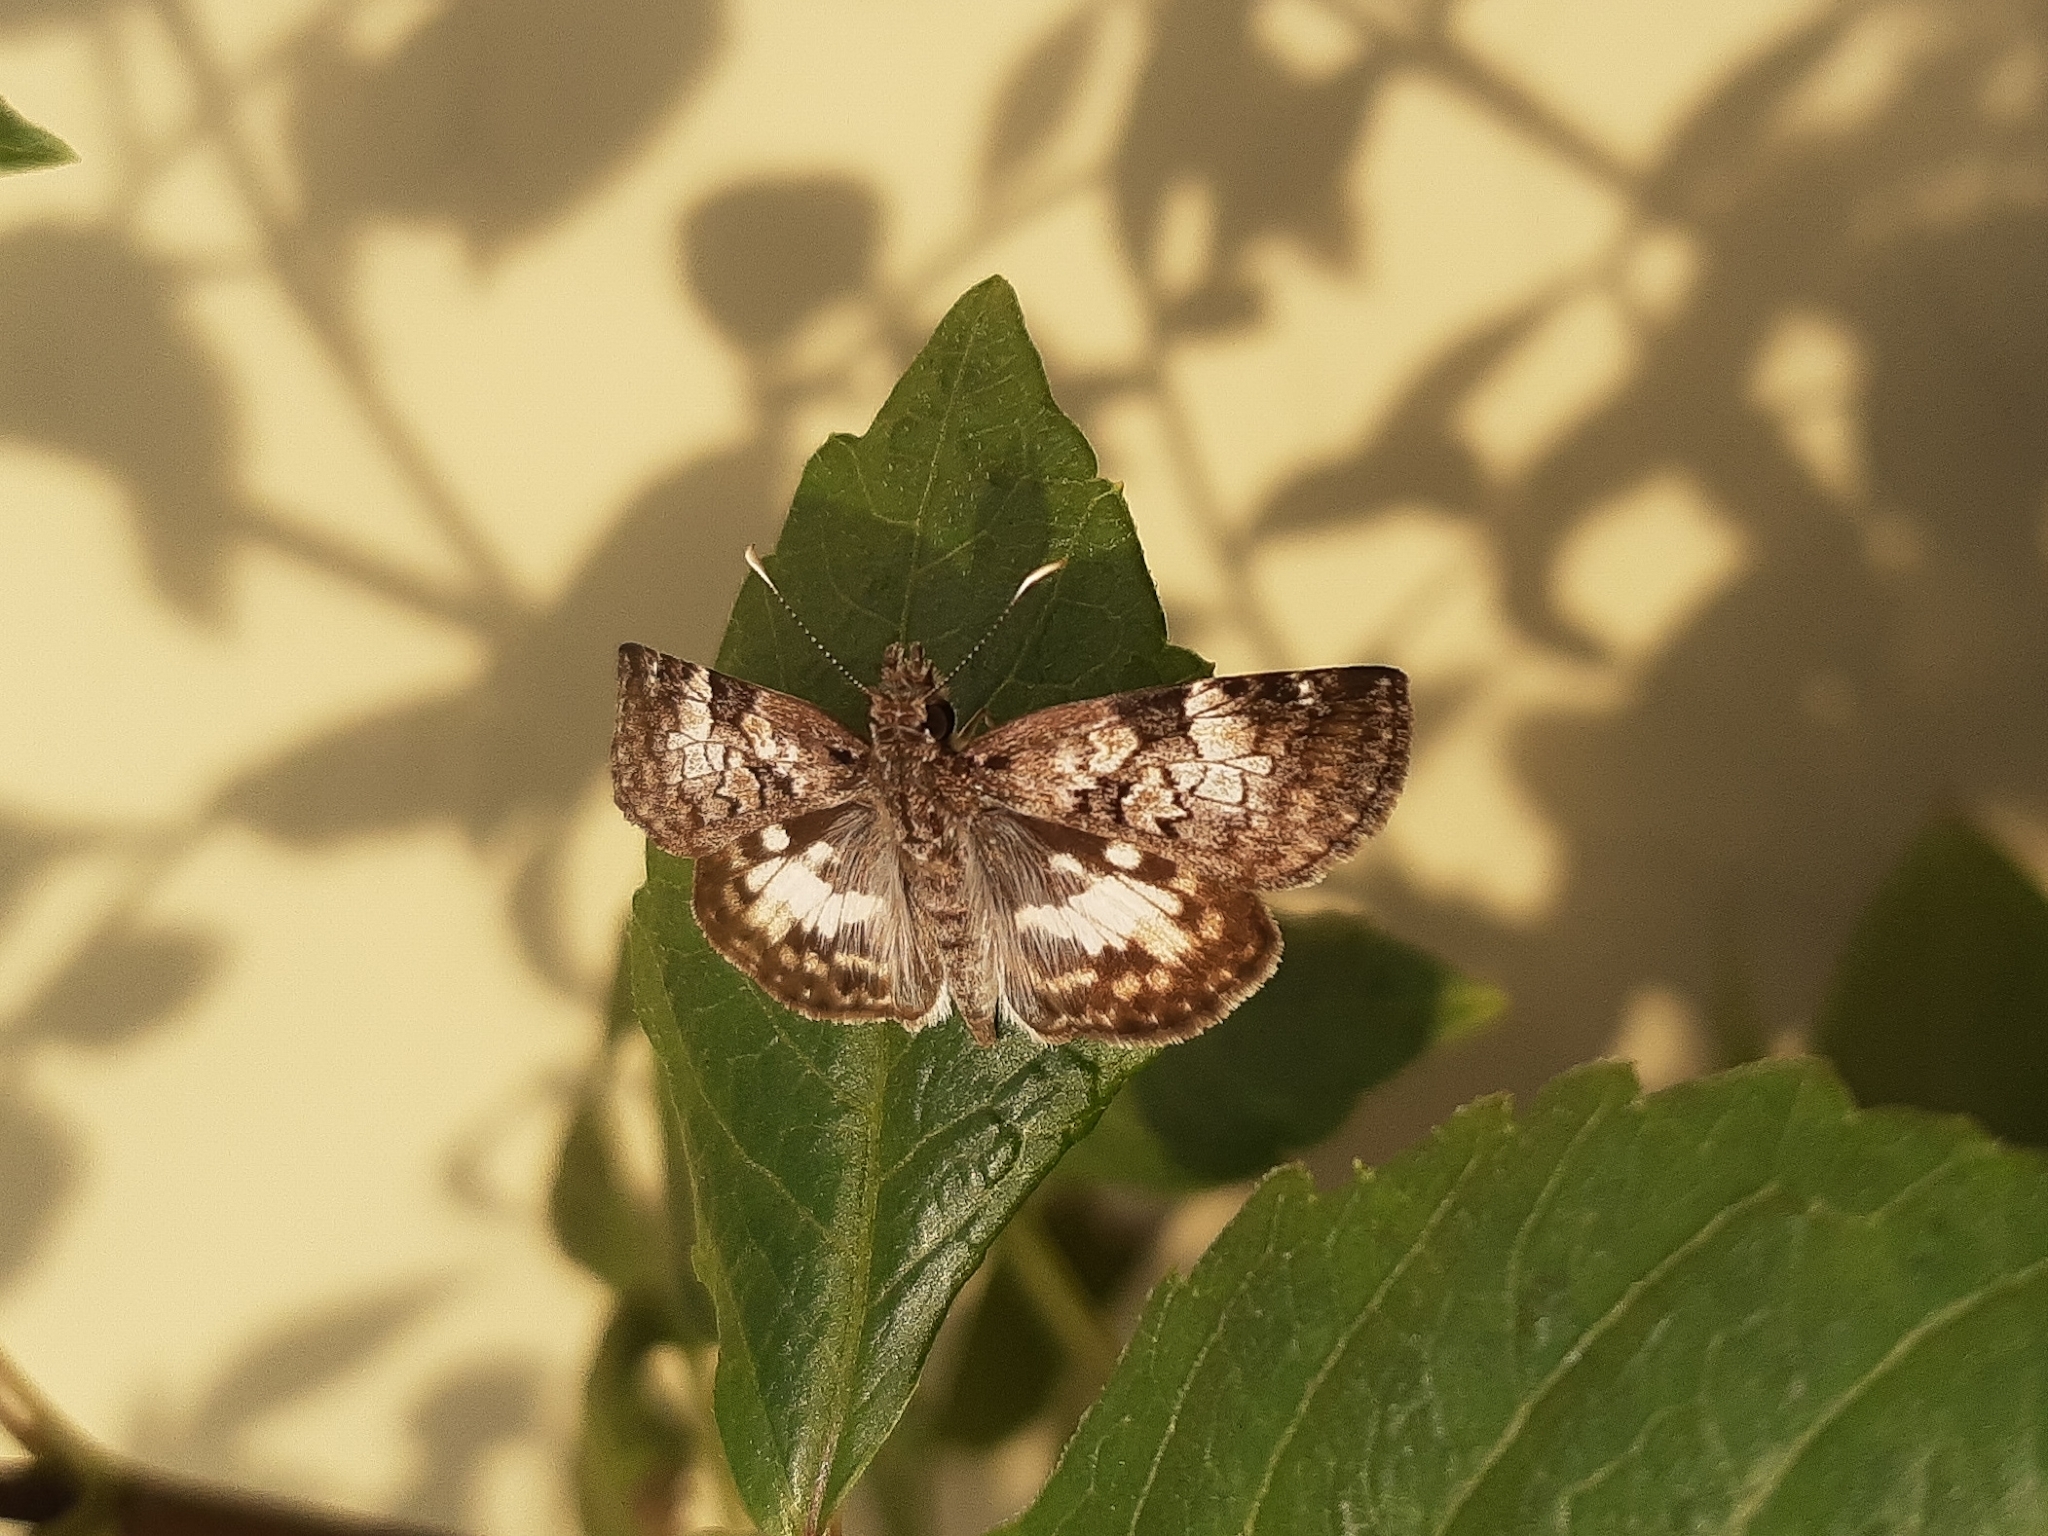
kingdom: Animalia
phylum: Arthropoda
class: Insecta
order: Lepidoptera
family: Hesperiidae
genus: Chiomara
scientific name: Chiomara asychis
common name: White-patterned skipper
